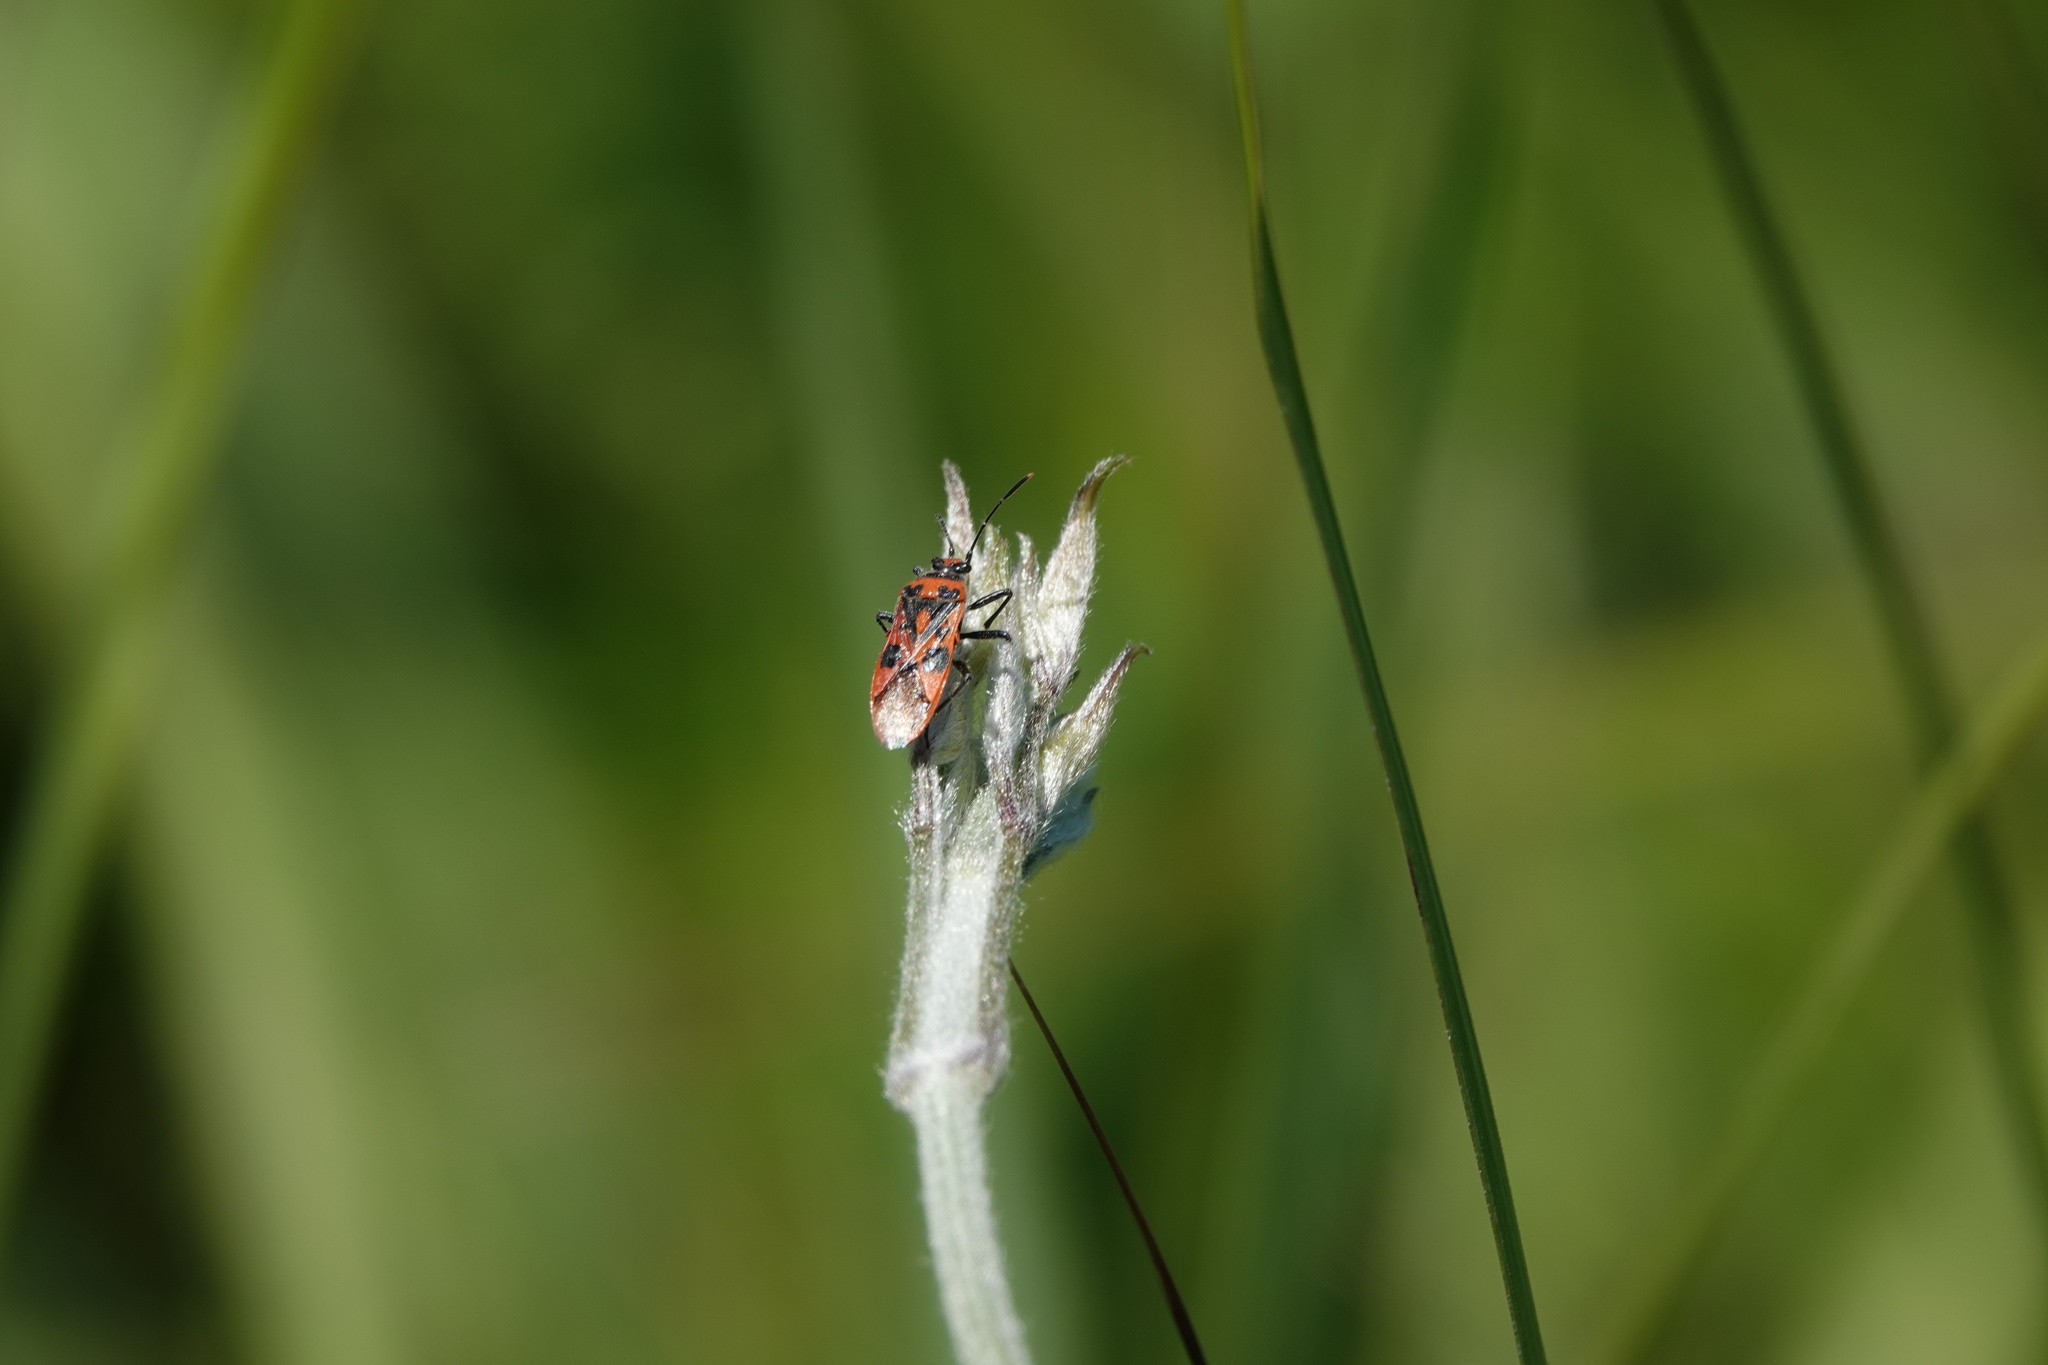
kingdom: Animalia
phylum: Arthropoda
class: Insecta
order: Hemiptera
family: Rhopalidae
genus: Corizus
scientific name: Corizus hyoscyami
